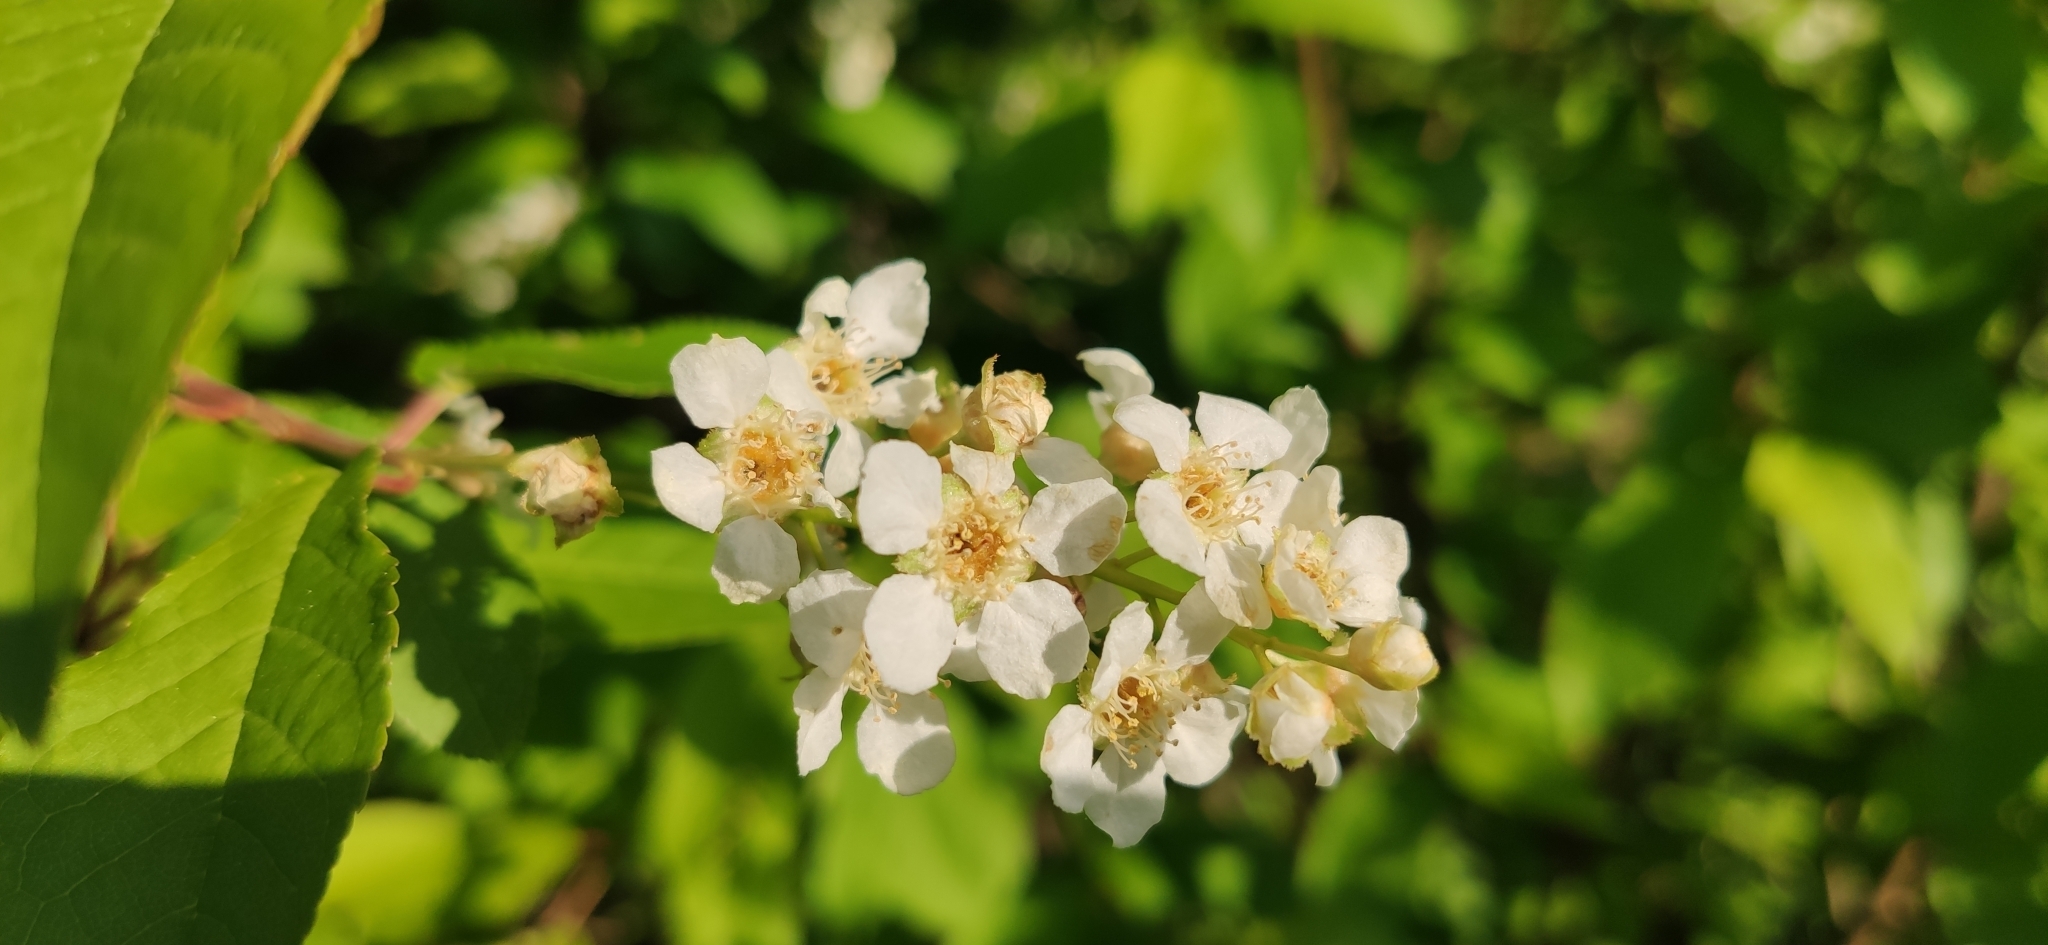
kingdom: Plantae
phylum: Tracheophyta
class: Magnoliopsida
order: Rosales
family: Rosaceae
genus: Prunus
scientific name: Prunus padus
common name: Bird cherry
